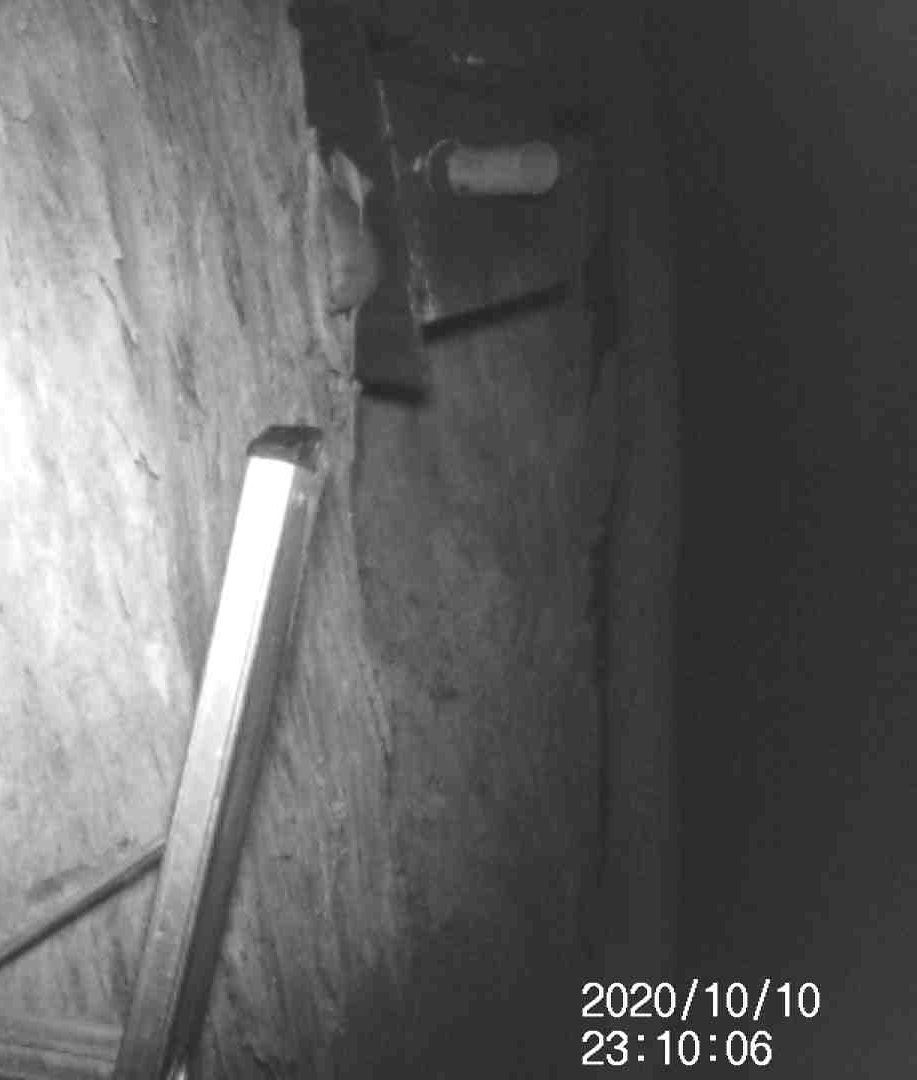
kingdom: Animalia
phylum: Chordata
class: Mammalia
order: Dasyuromorphia
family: Dasyuridae
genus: Antechinus
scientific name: Antechinus agilis
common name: Agile antechinus
